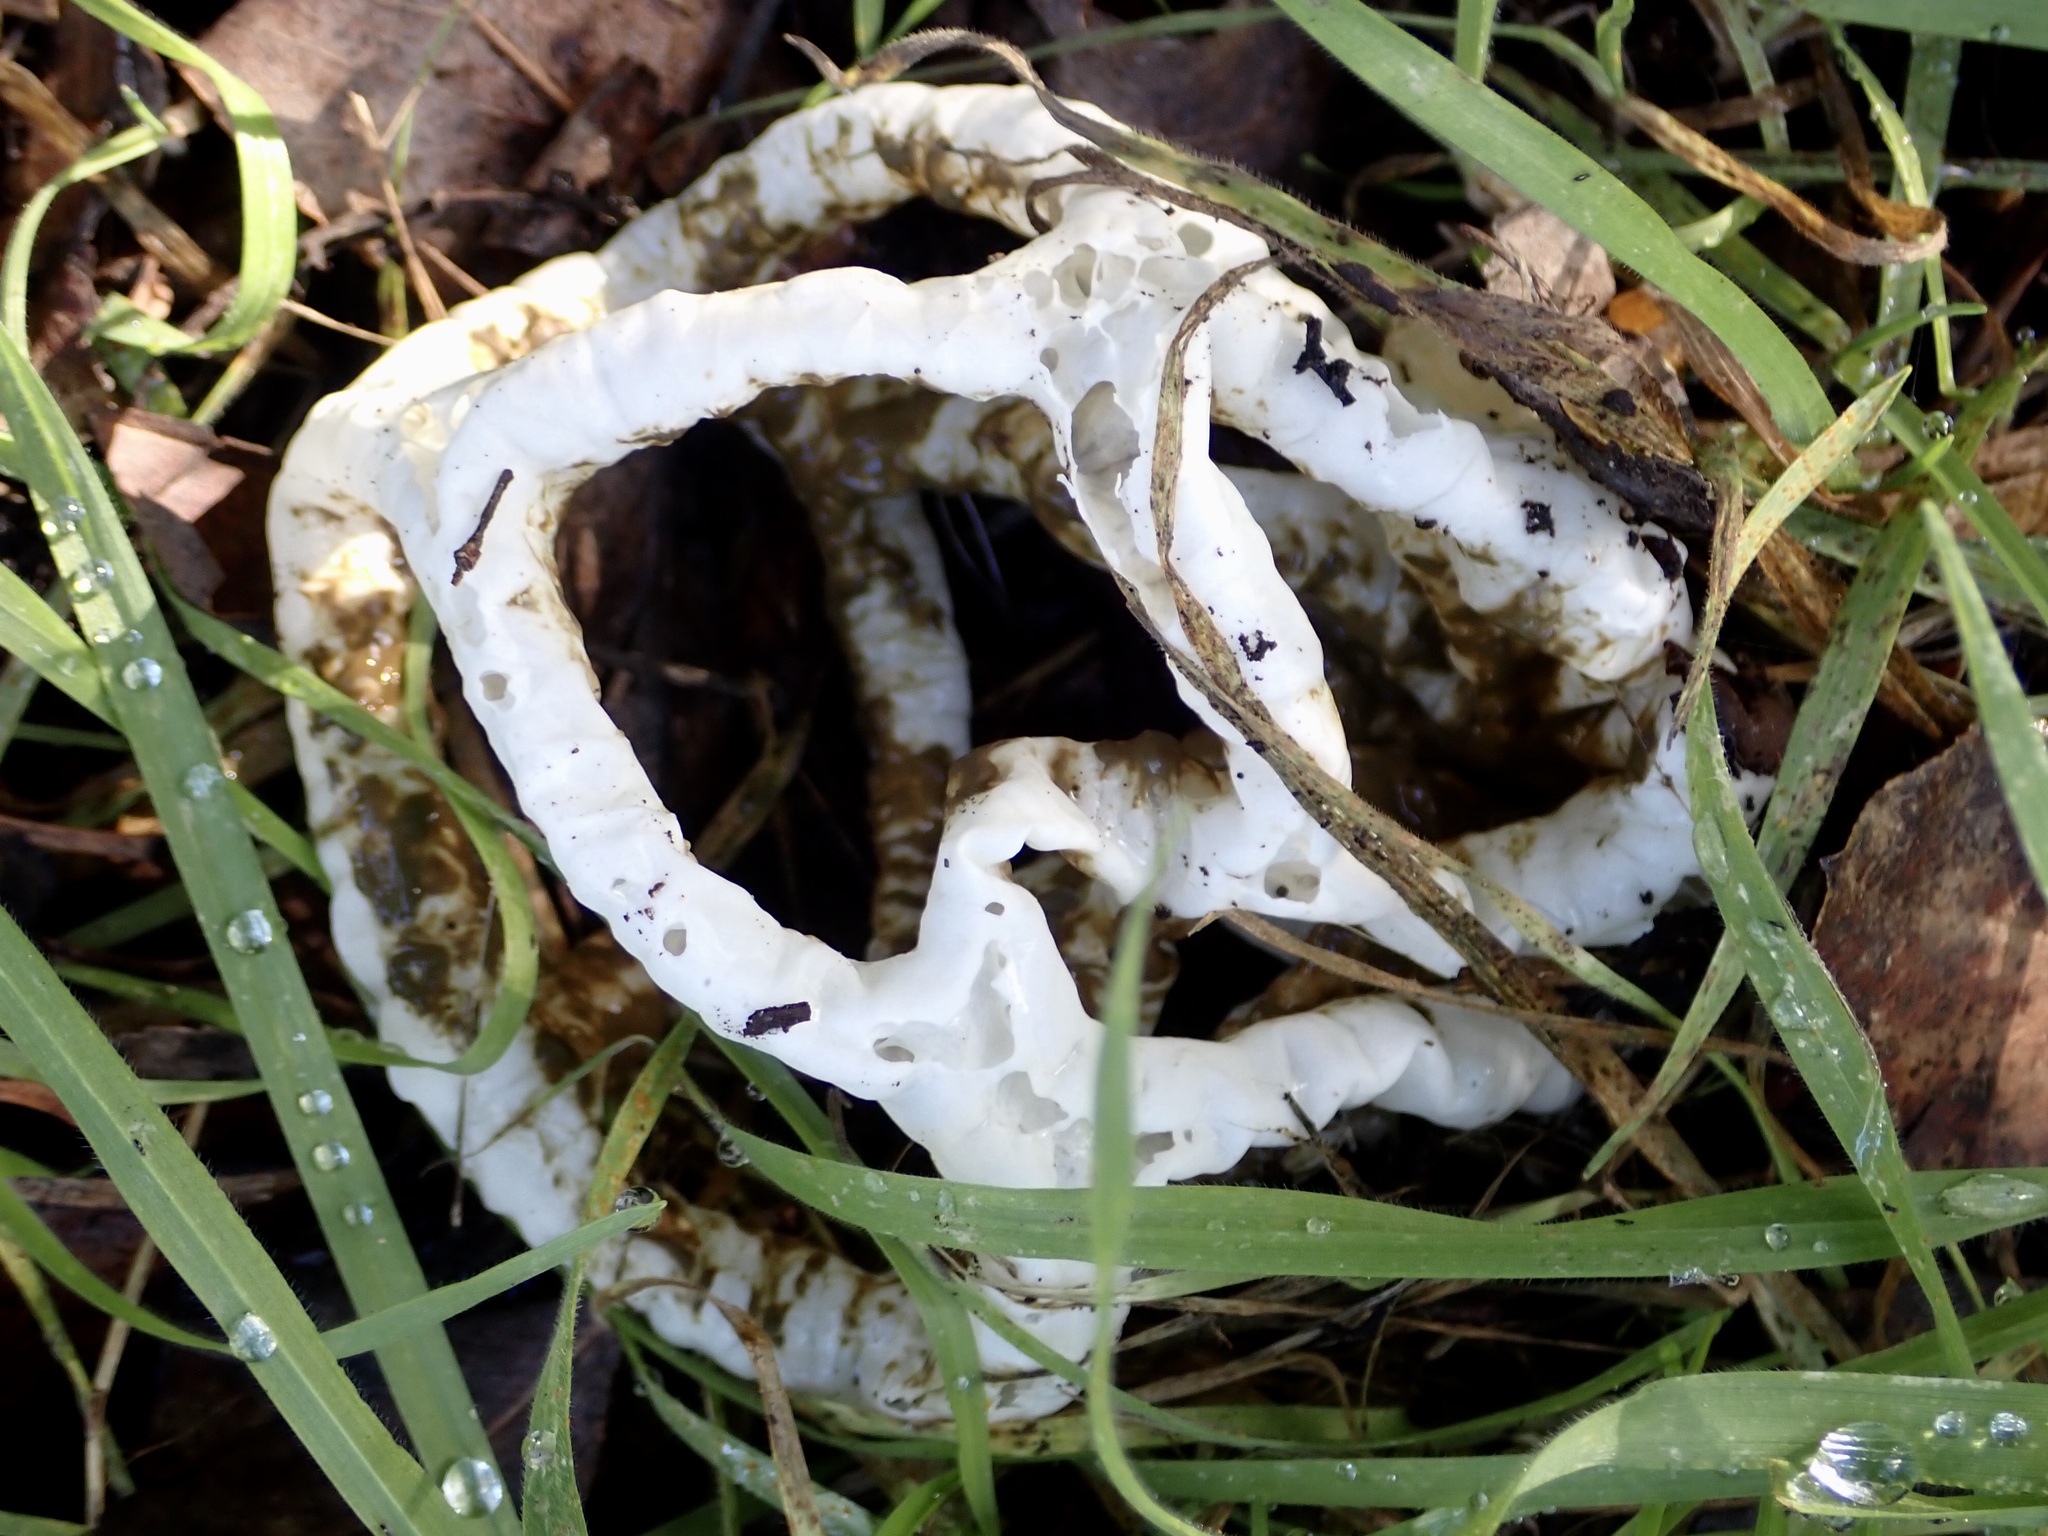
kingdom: Fungi
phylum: Basidiomycota
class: Agaricomycetes
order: Phallales
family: Phallaceae
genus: Ileodictyon
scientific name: Ileodictyon cibarium
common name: Basket fungus
